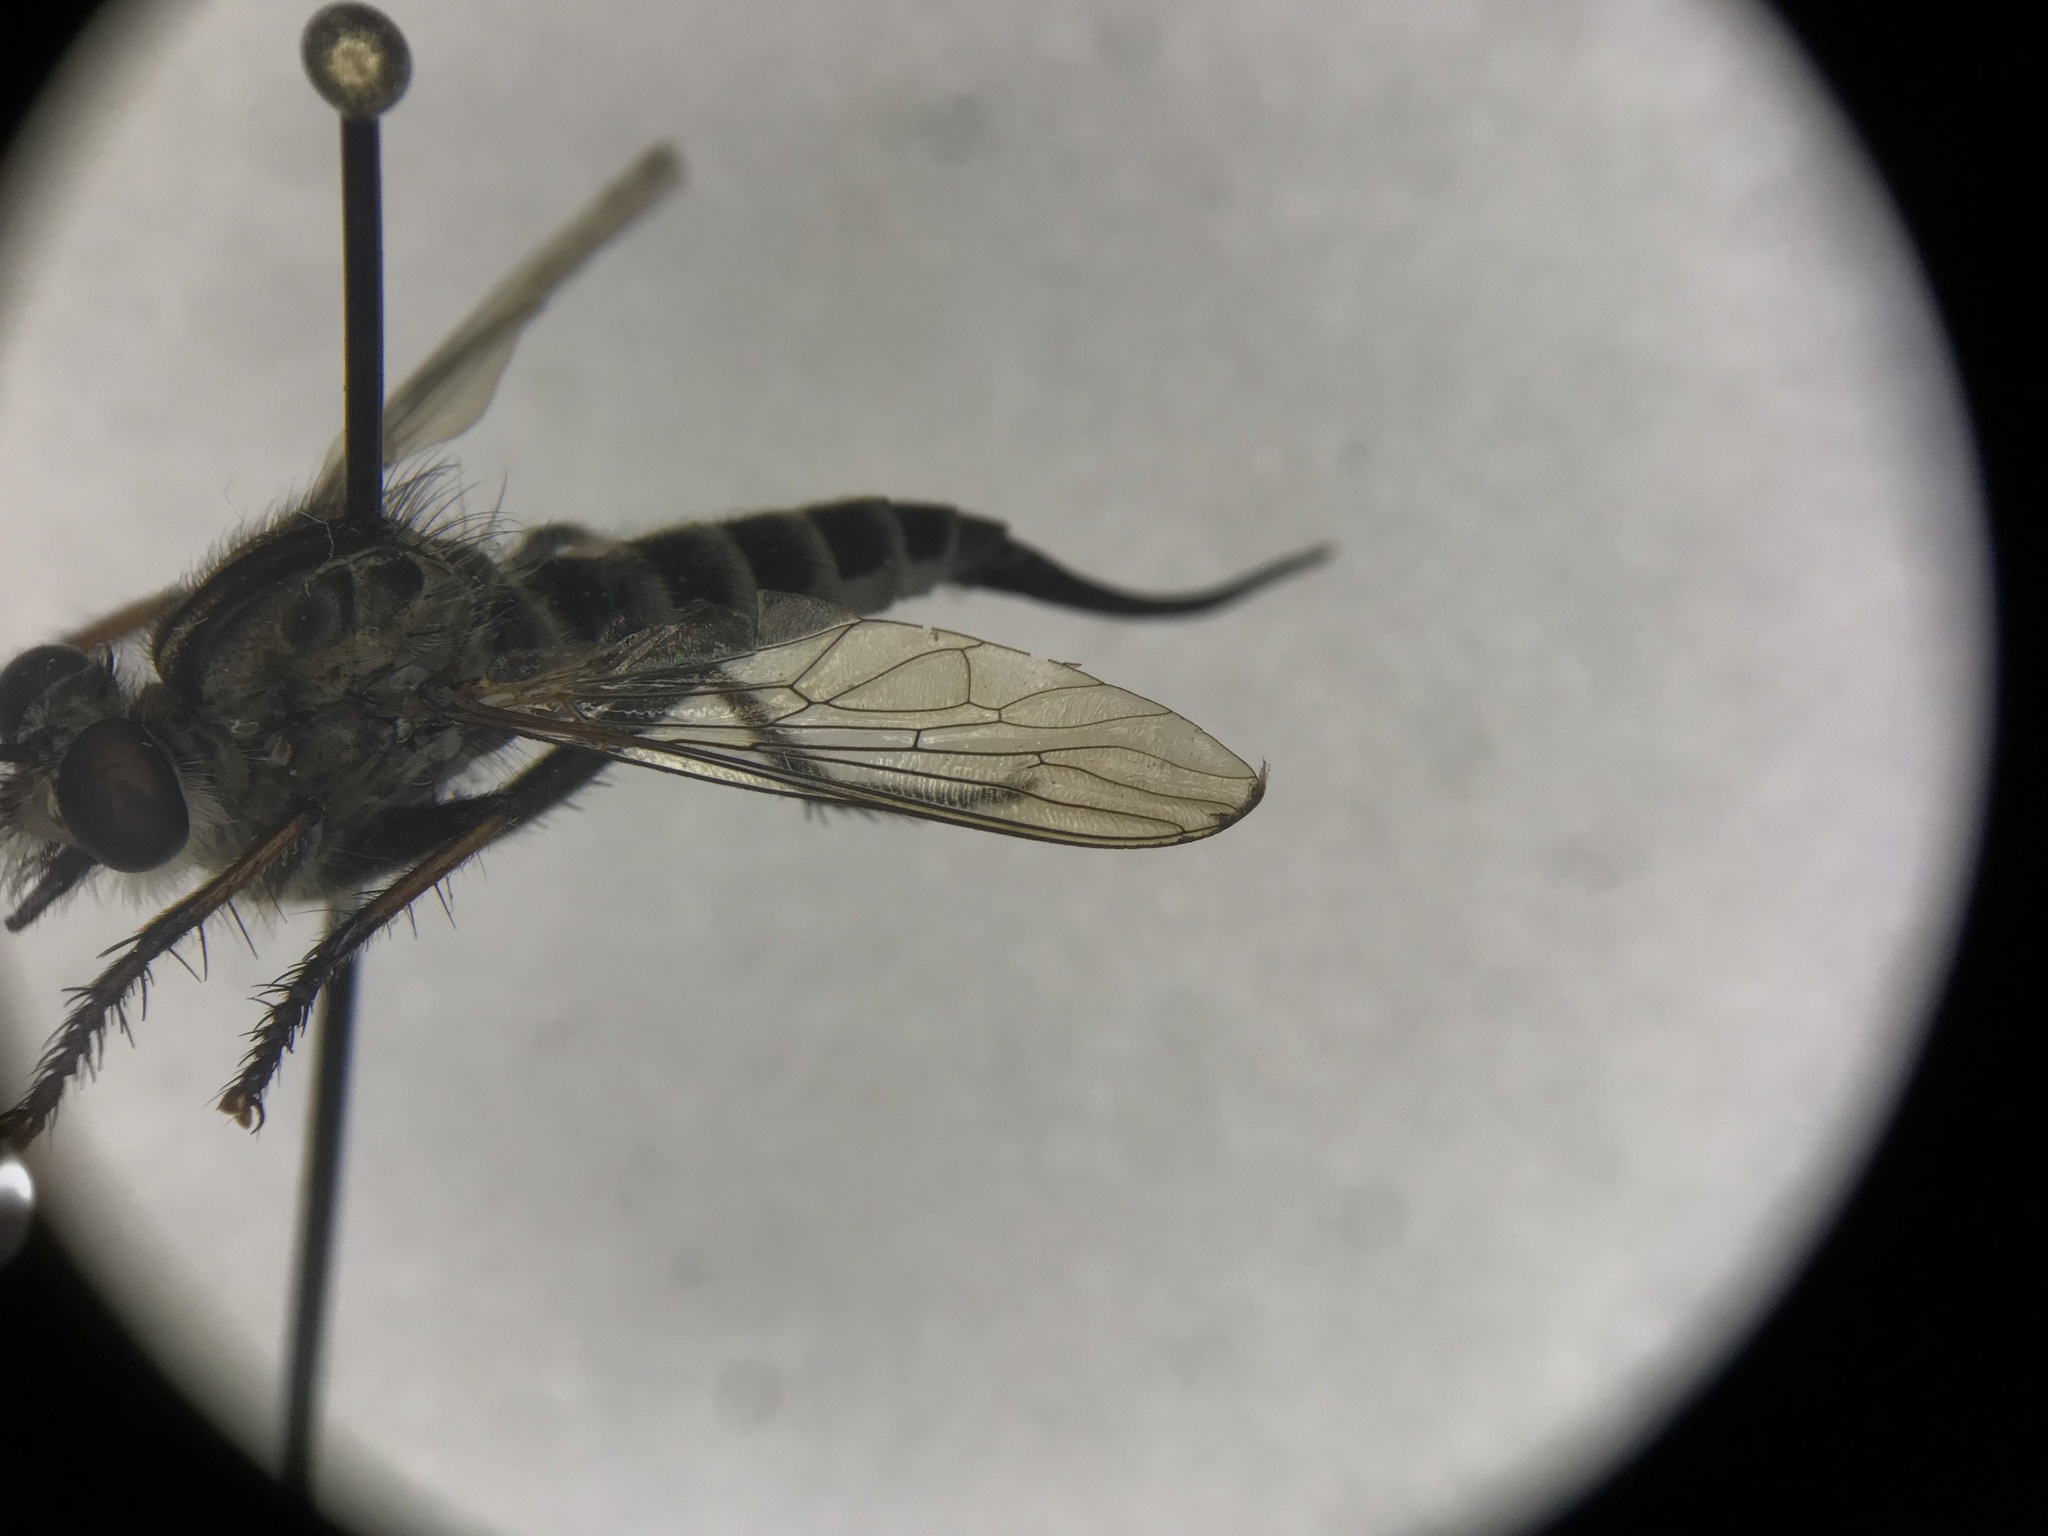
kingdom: Animalia
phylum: Arthropoda
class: Insecta
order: Diptera
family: Asilidae
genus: Efferia
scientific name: Efferia aestuans
